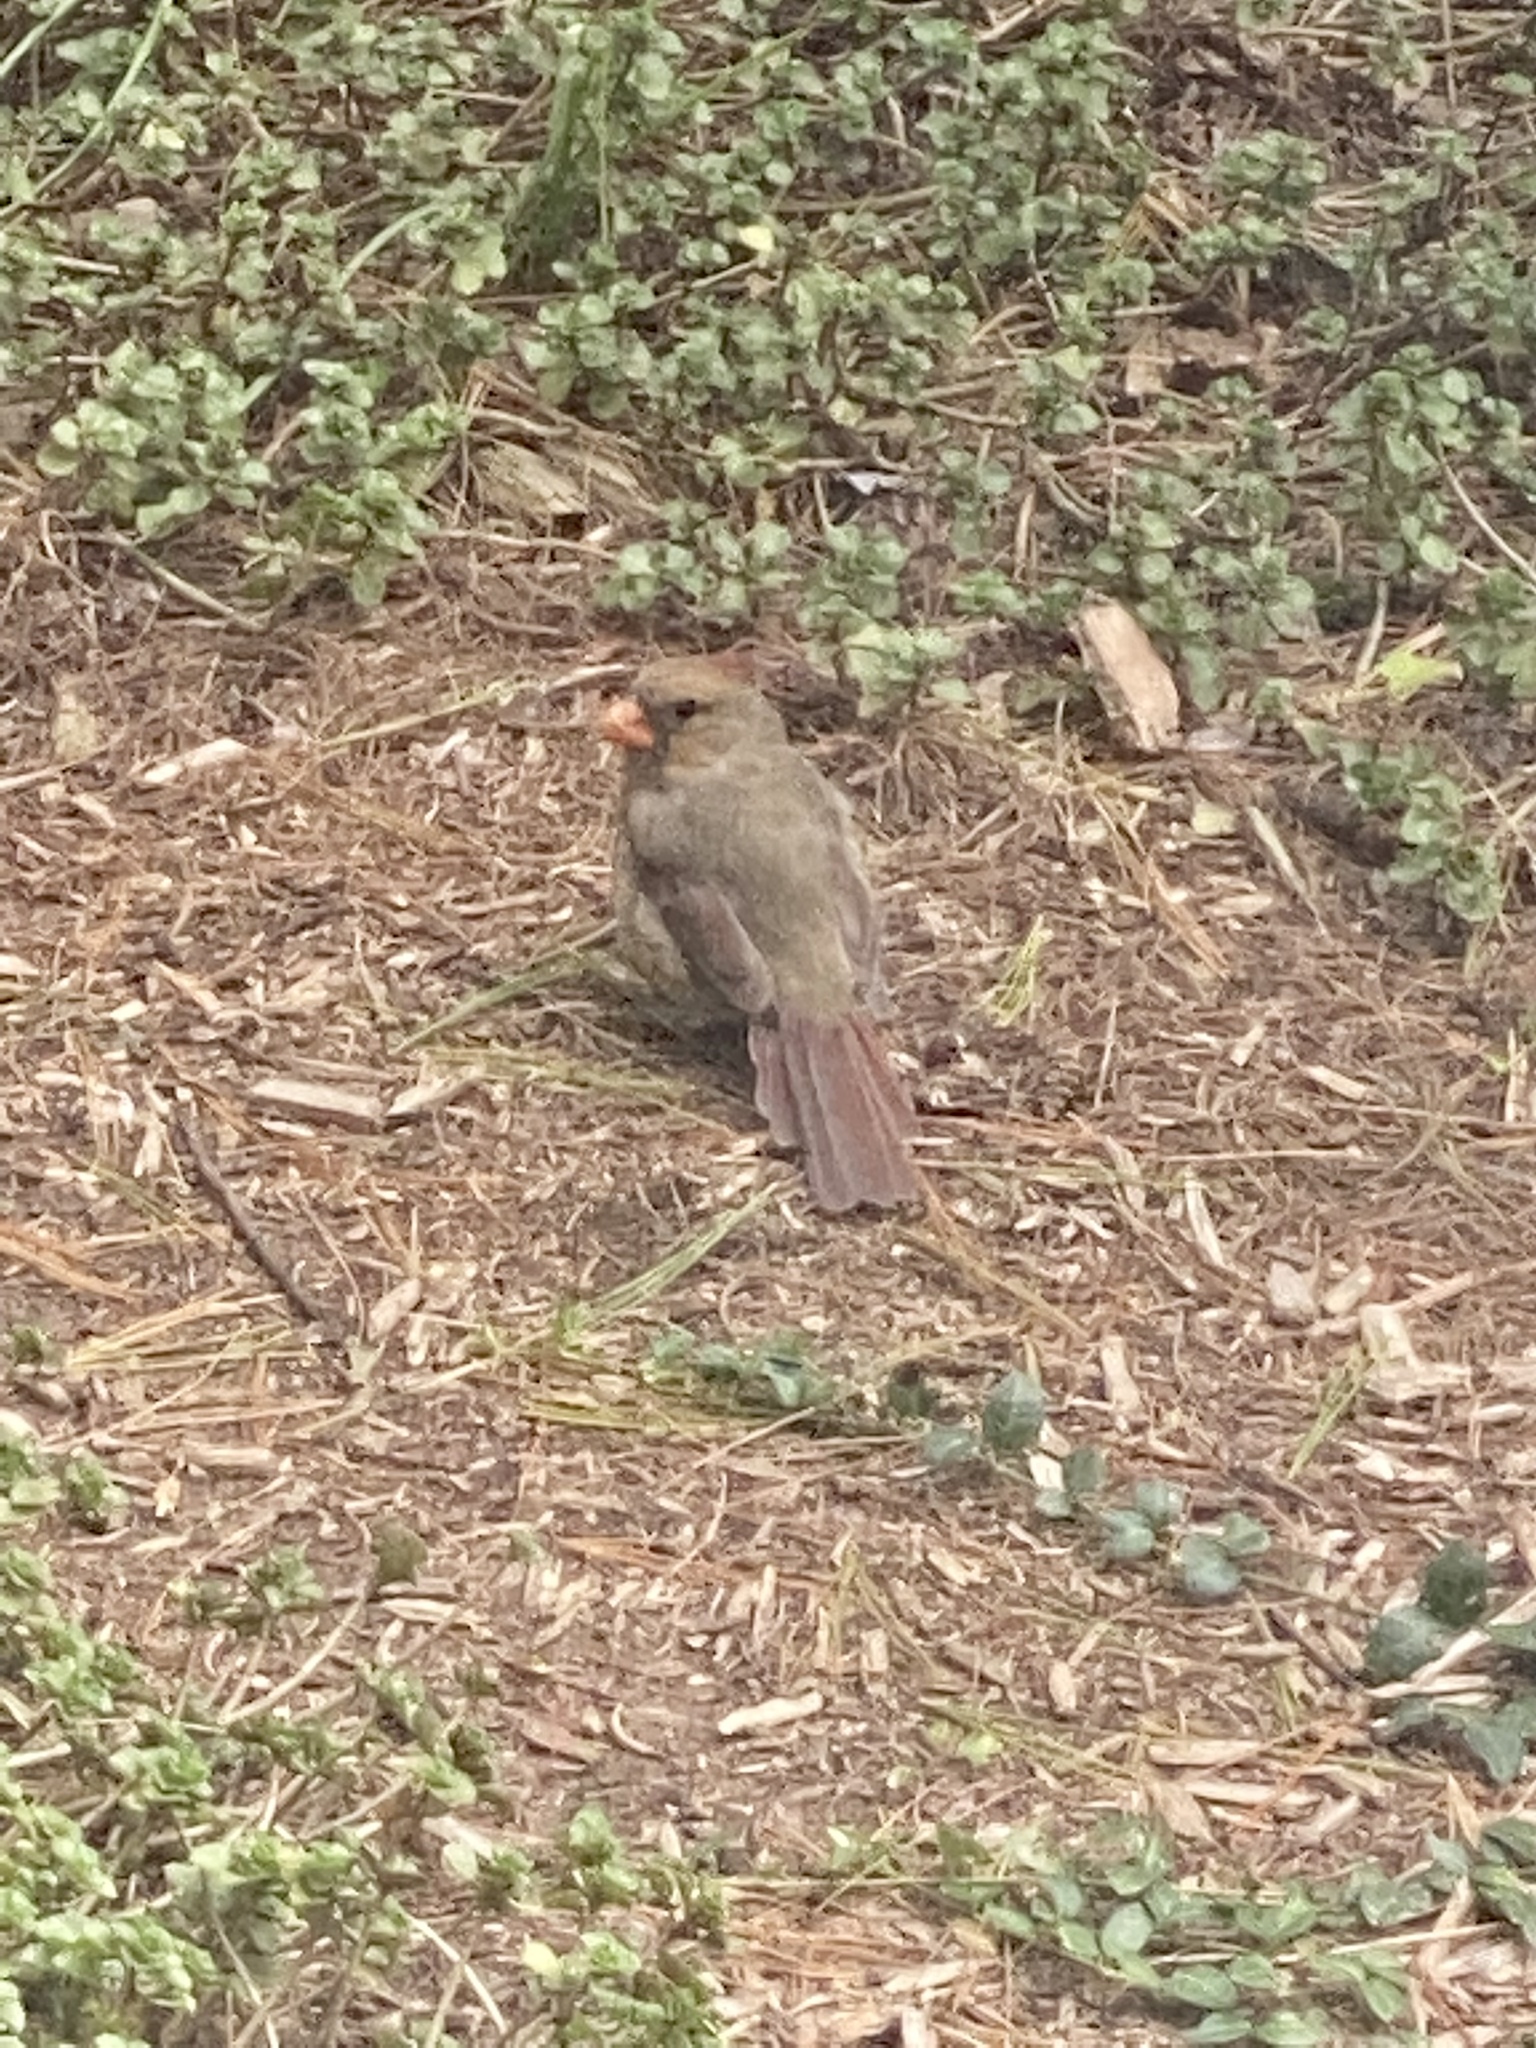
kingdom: Animalia
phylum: Chordata
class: Aves
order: Passeriformes
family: Cardinalidae
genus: Cardinalis
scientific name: Cardinalis cardinalis
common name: Northern cardinal
